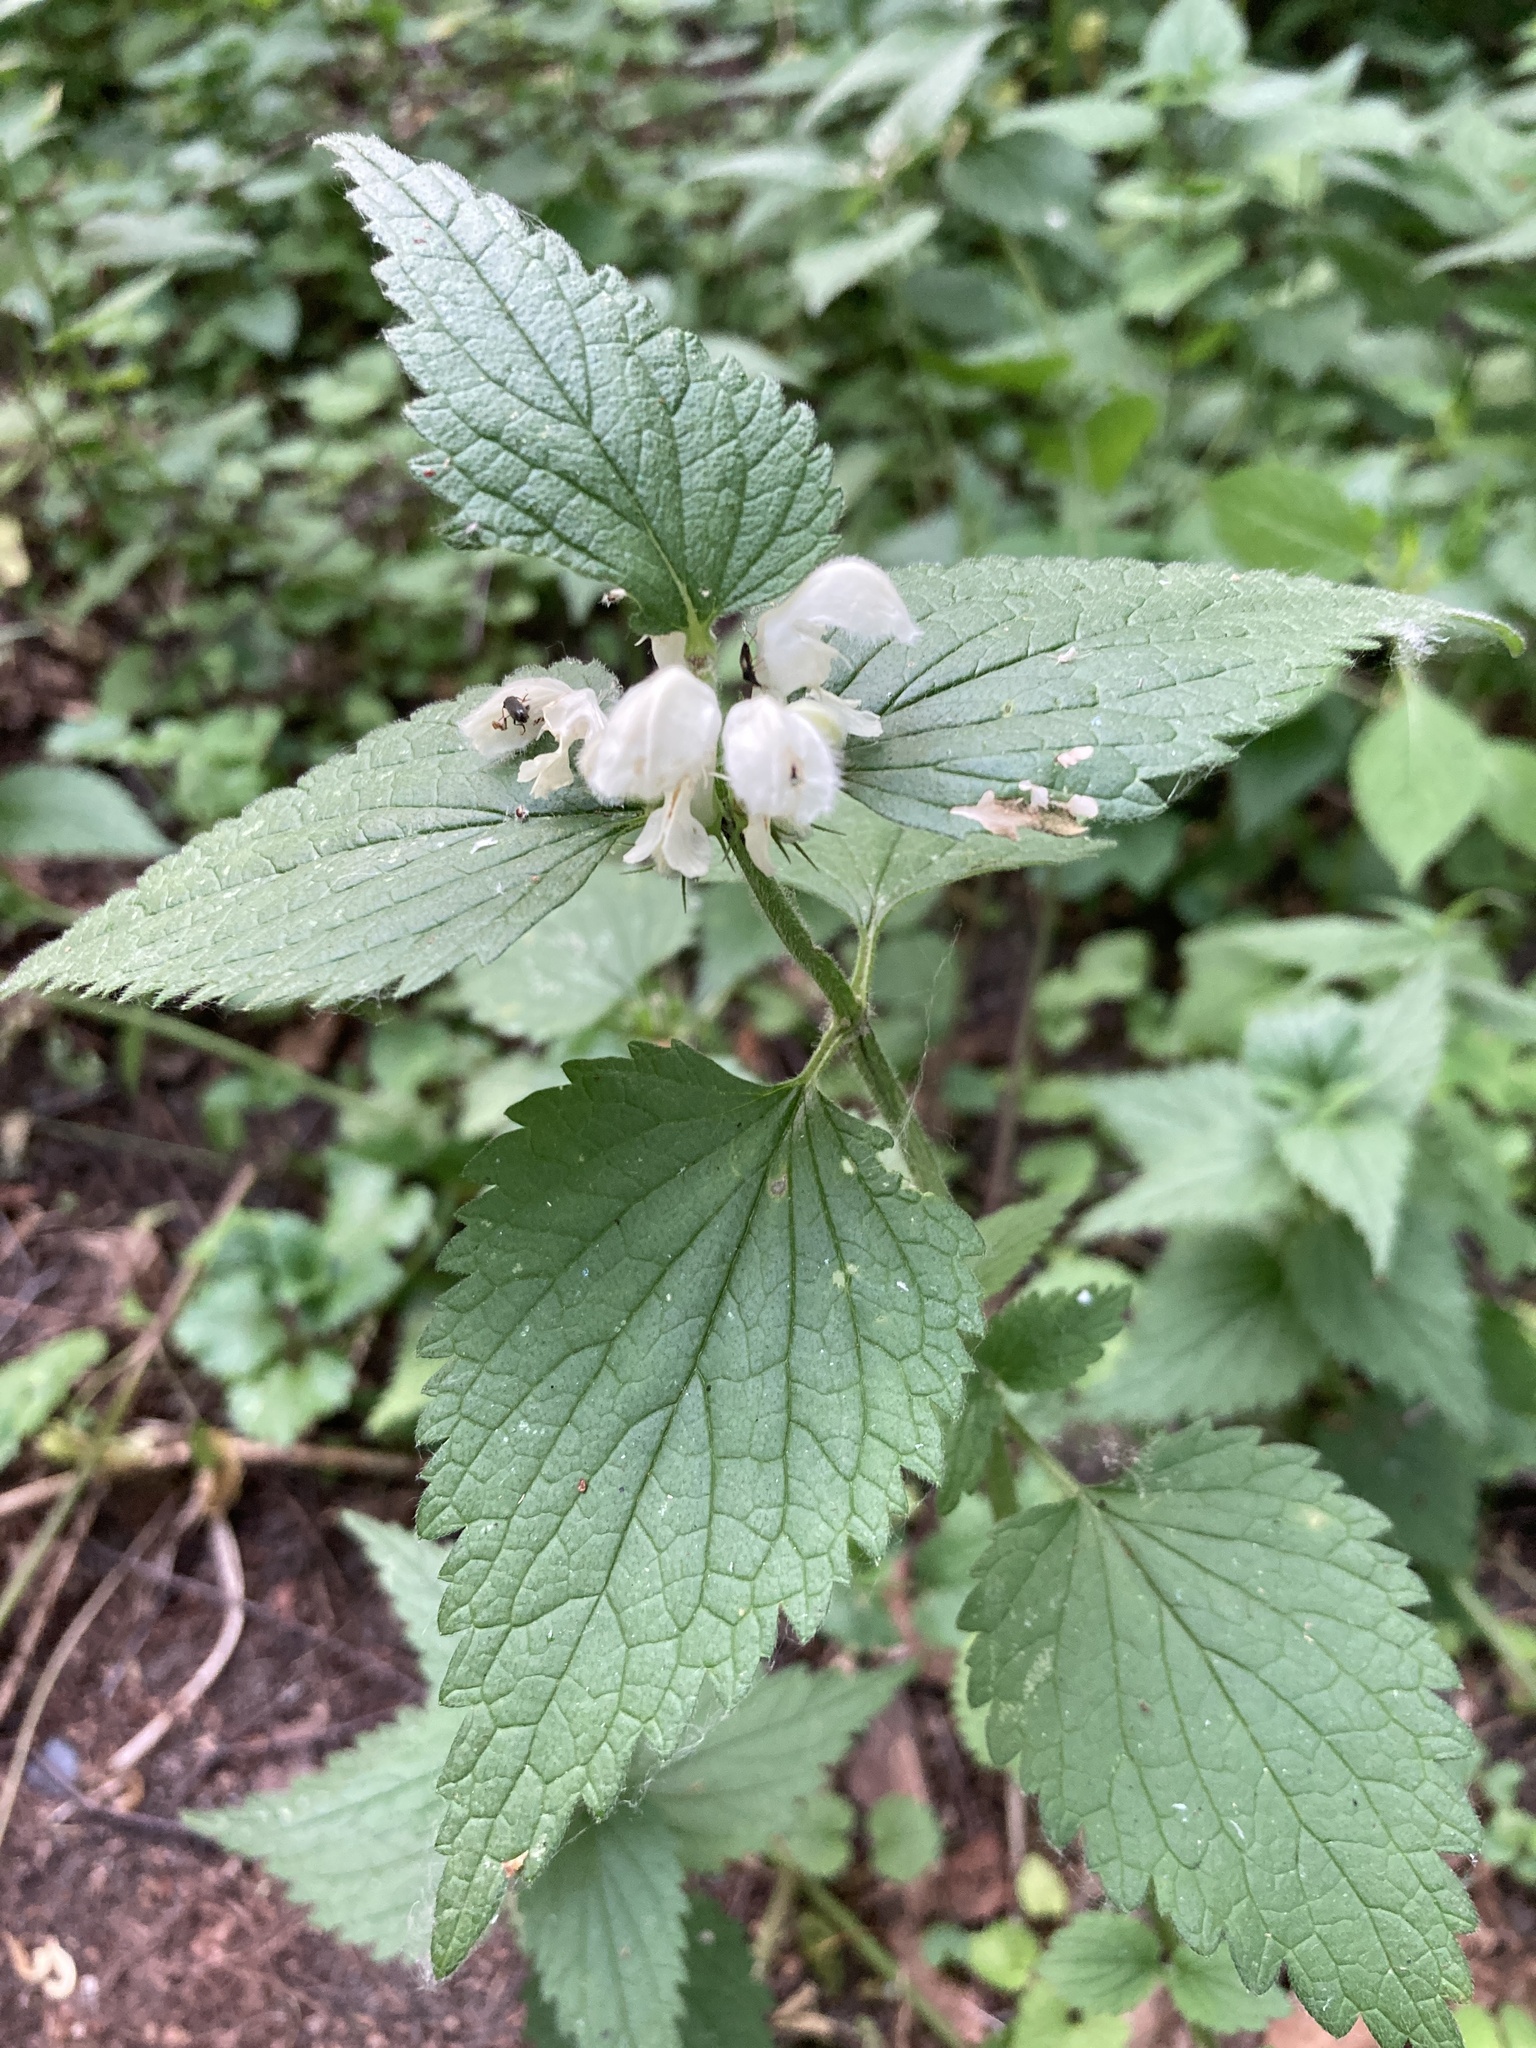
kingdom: Plantae
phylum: Tracheophyta
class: Magnoliopsida
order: Lamiales
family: Lamiaceae
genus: Lamium
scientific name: Lamium album
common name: White dead-nettle
